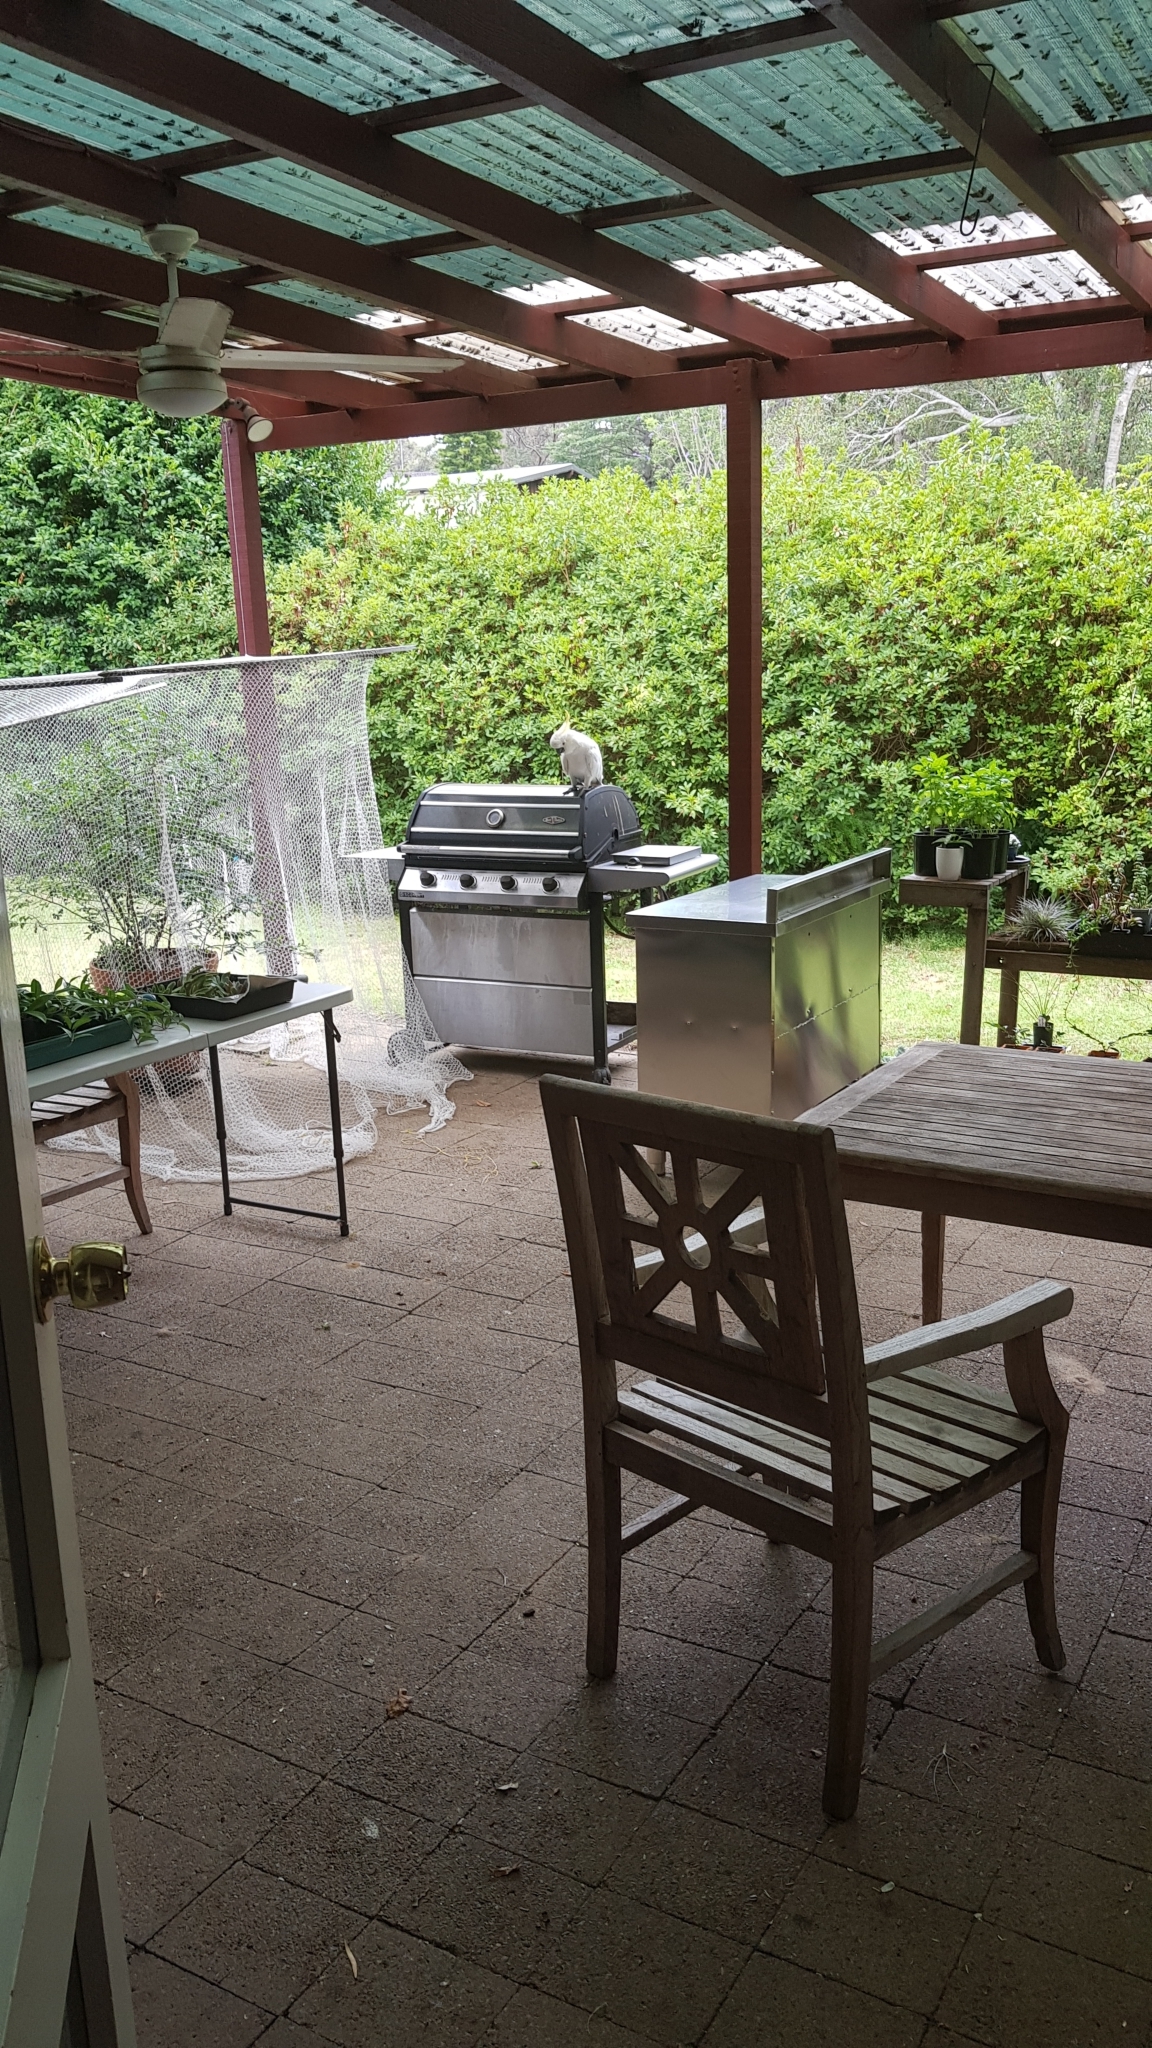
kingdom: Animalia
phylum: Chordata
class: Aves
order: Psittaciformes
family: Psittacidae
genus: Cacatua
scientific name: Cacatua galerita
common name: Sulphur-crested cockatoo
